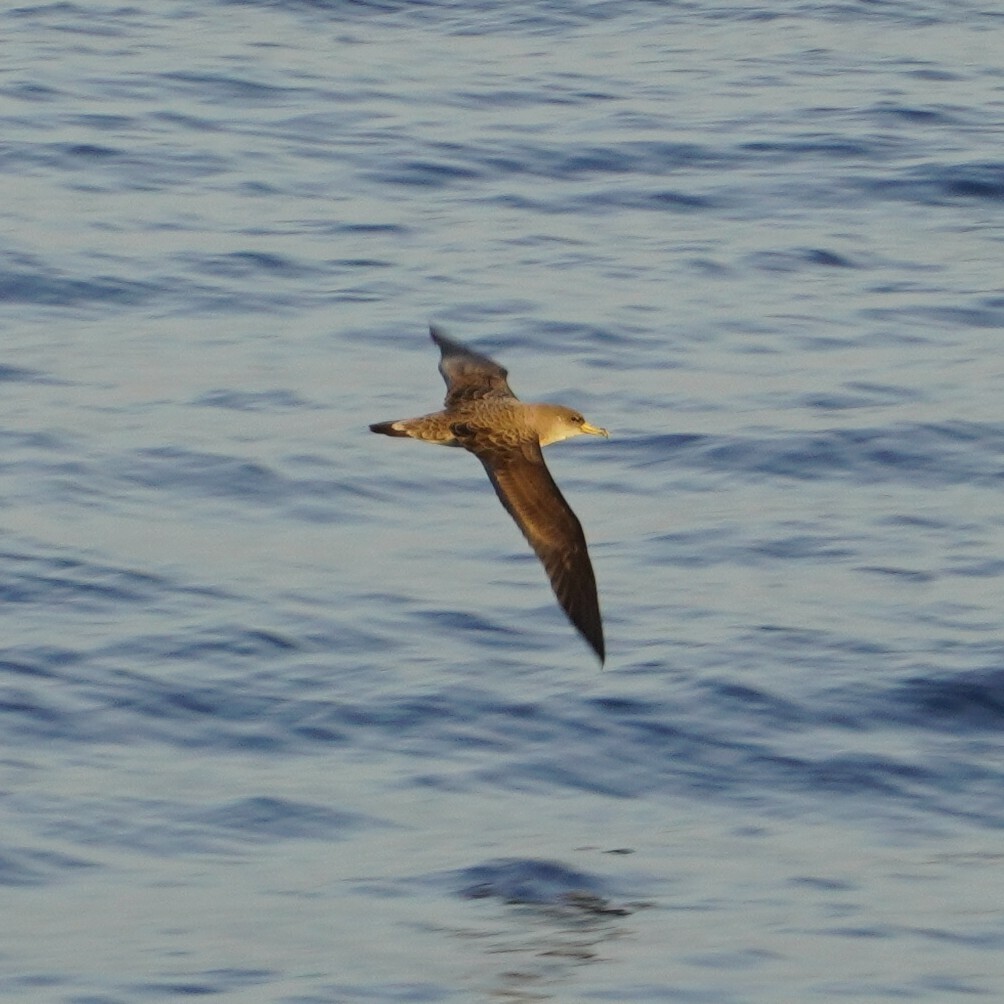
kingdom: Animalia
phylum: Chordata
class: Aves
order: Procellariiformes
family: Procellariidae
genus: Calonectris
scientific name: Calonectris diomedea
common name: Cory's shearwater
